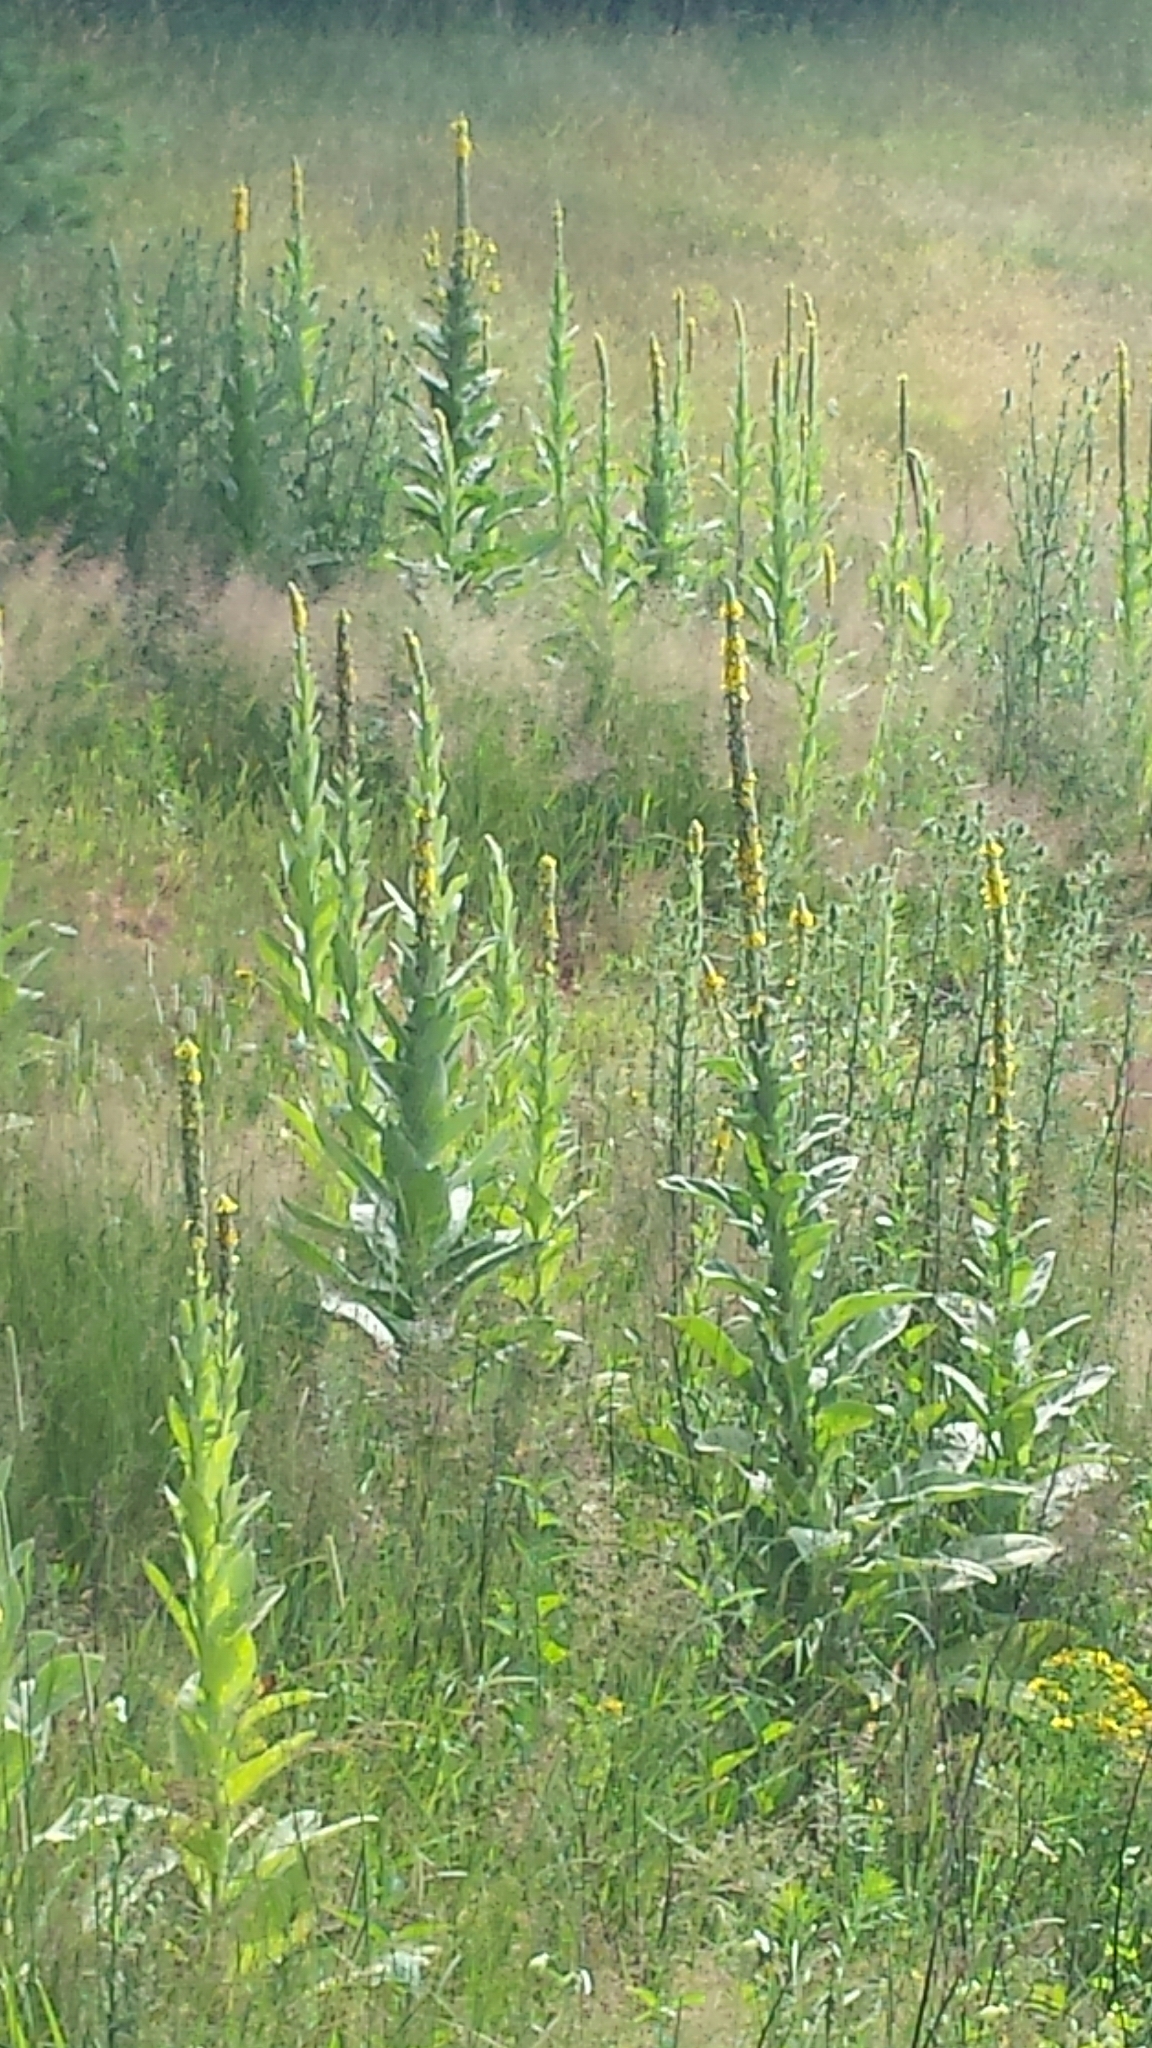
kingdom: Plantae
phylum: Tracheophyta
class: Magnoliopsida
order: Lamiales
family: Scrophulariaceae
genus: Verbascum
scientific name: Verbascum thapsus
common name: Common mullein
